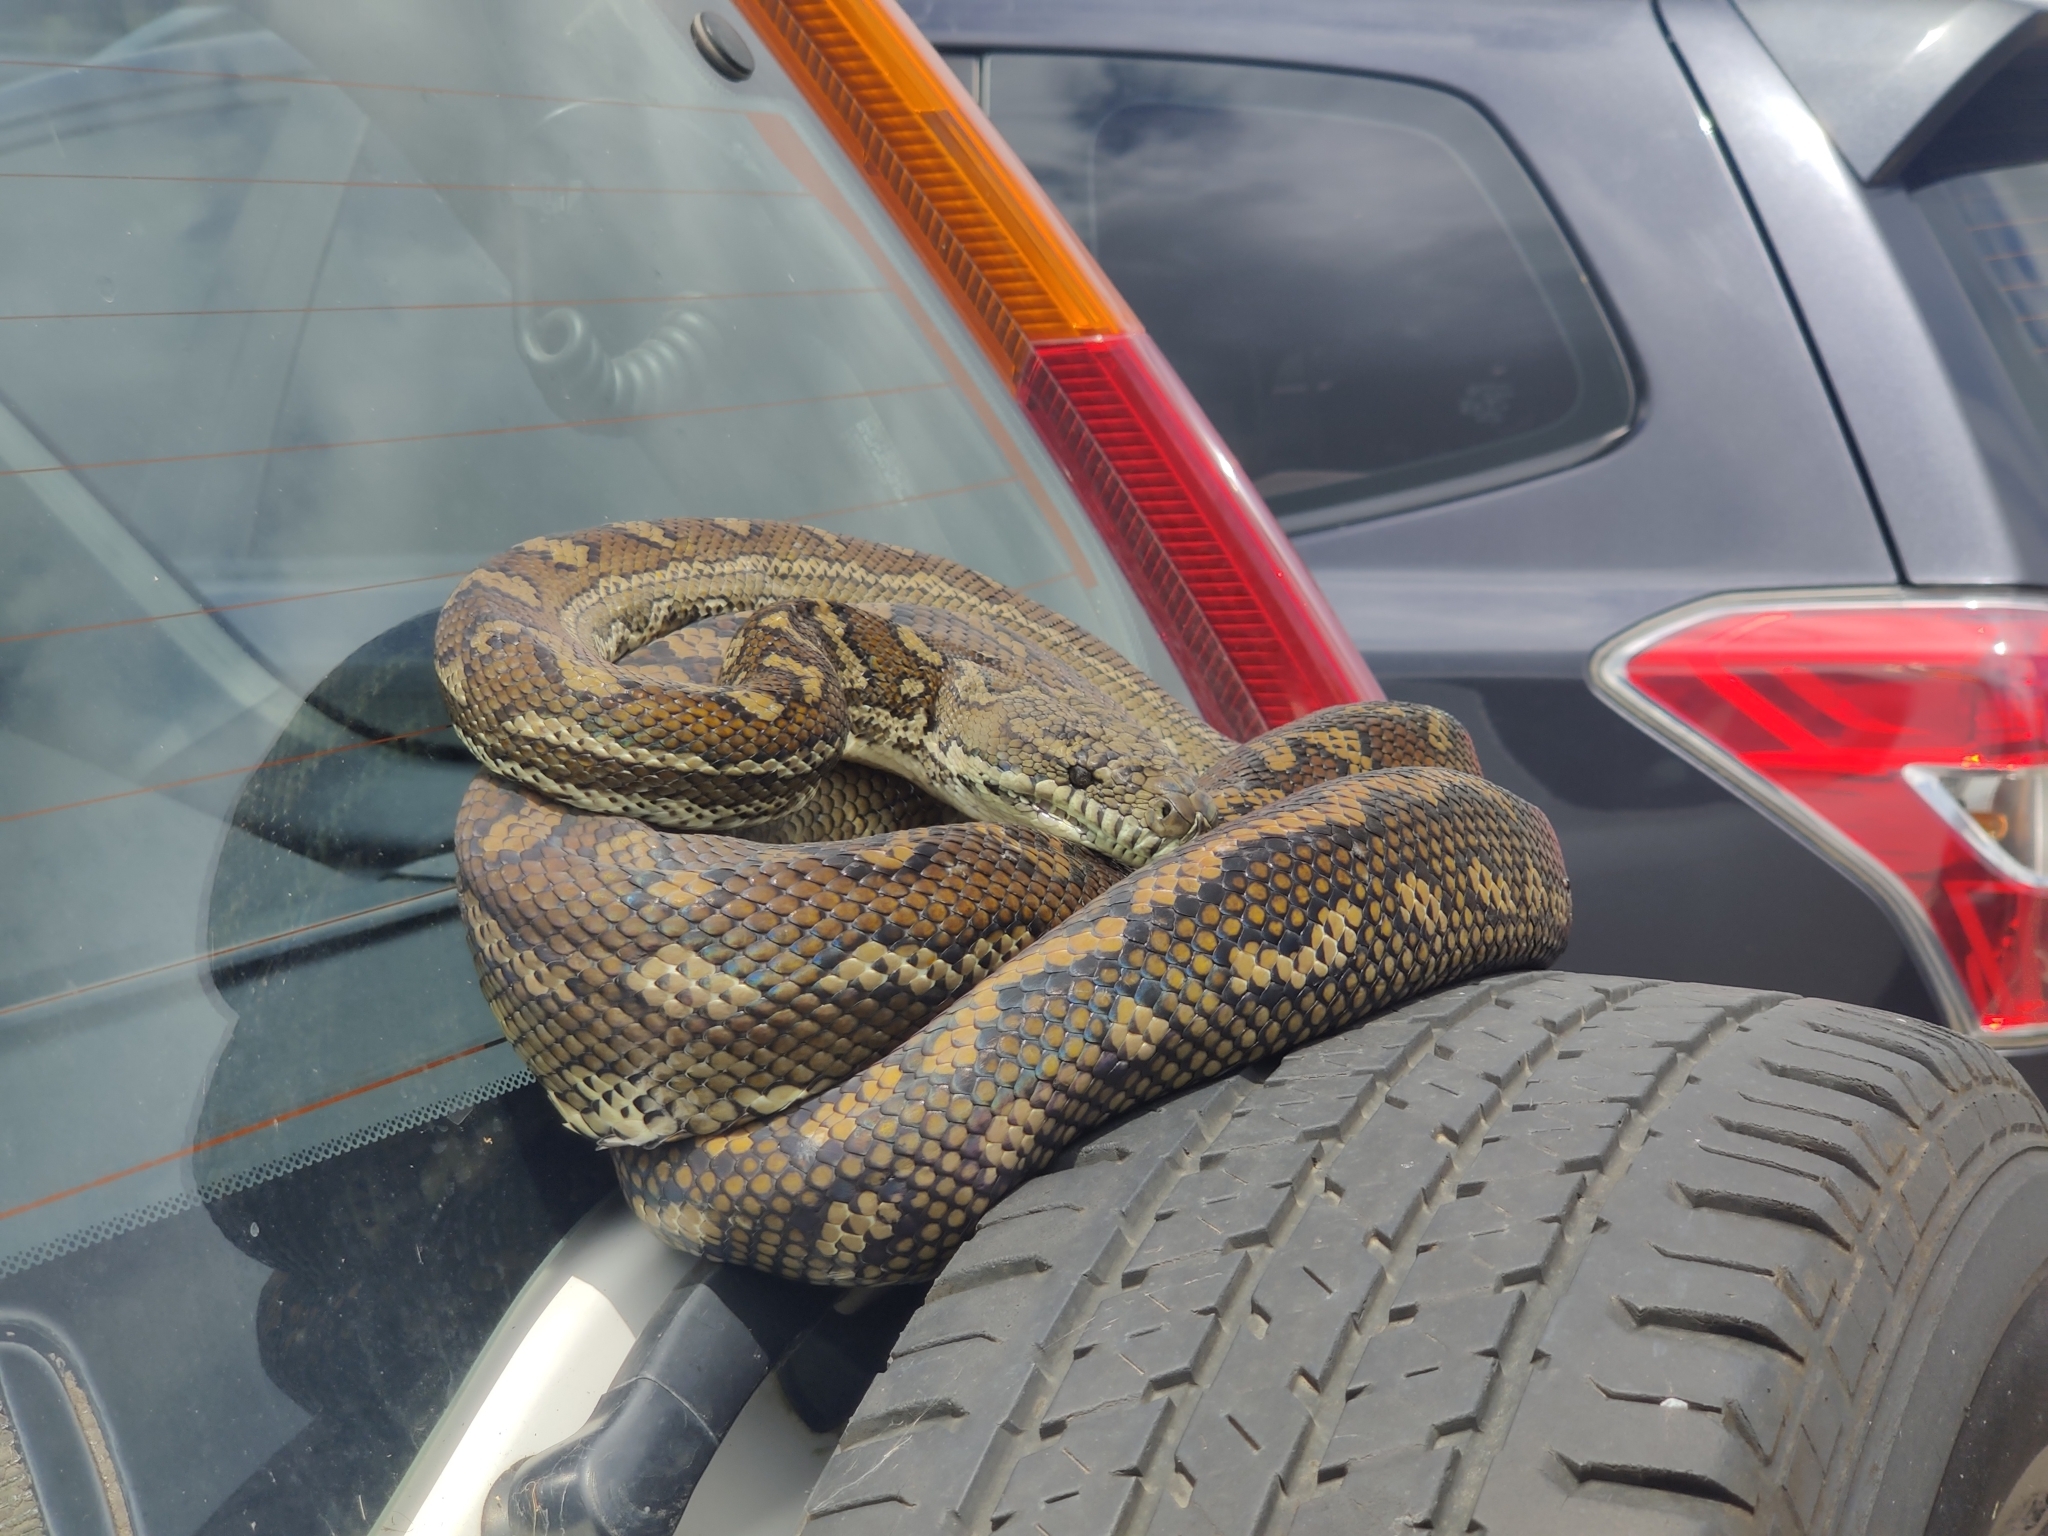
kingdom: Animalia
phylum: Chordata
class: Squamata
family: Pythonidae
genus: Morelia
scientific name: Morelia spilota
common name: Carpet python
